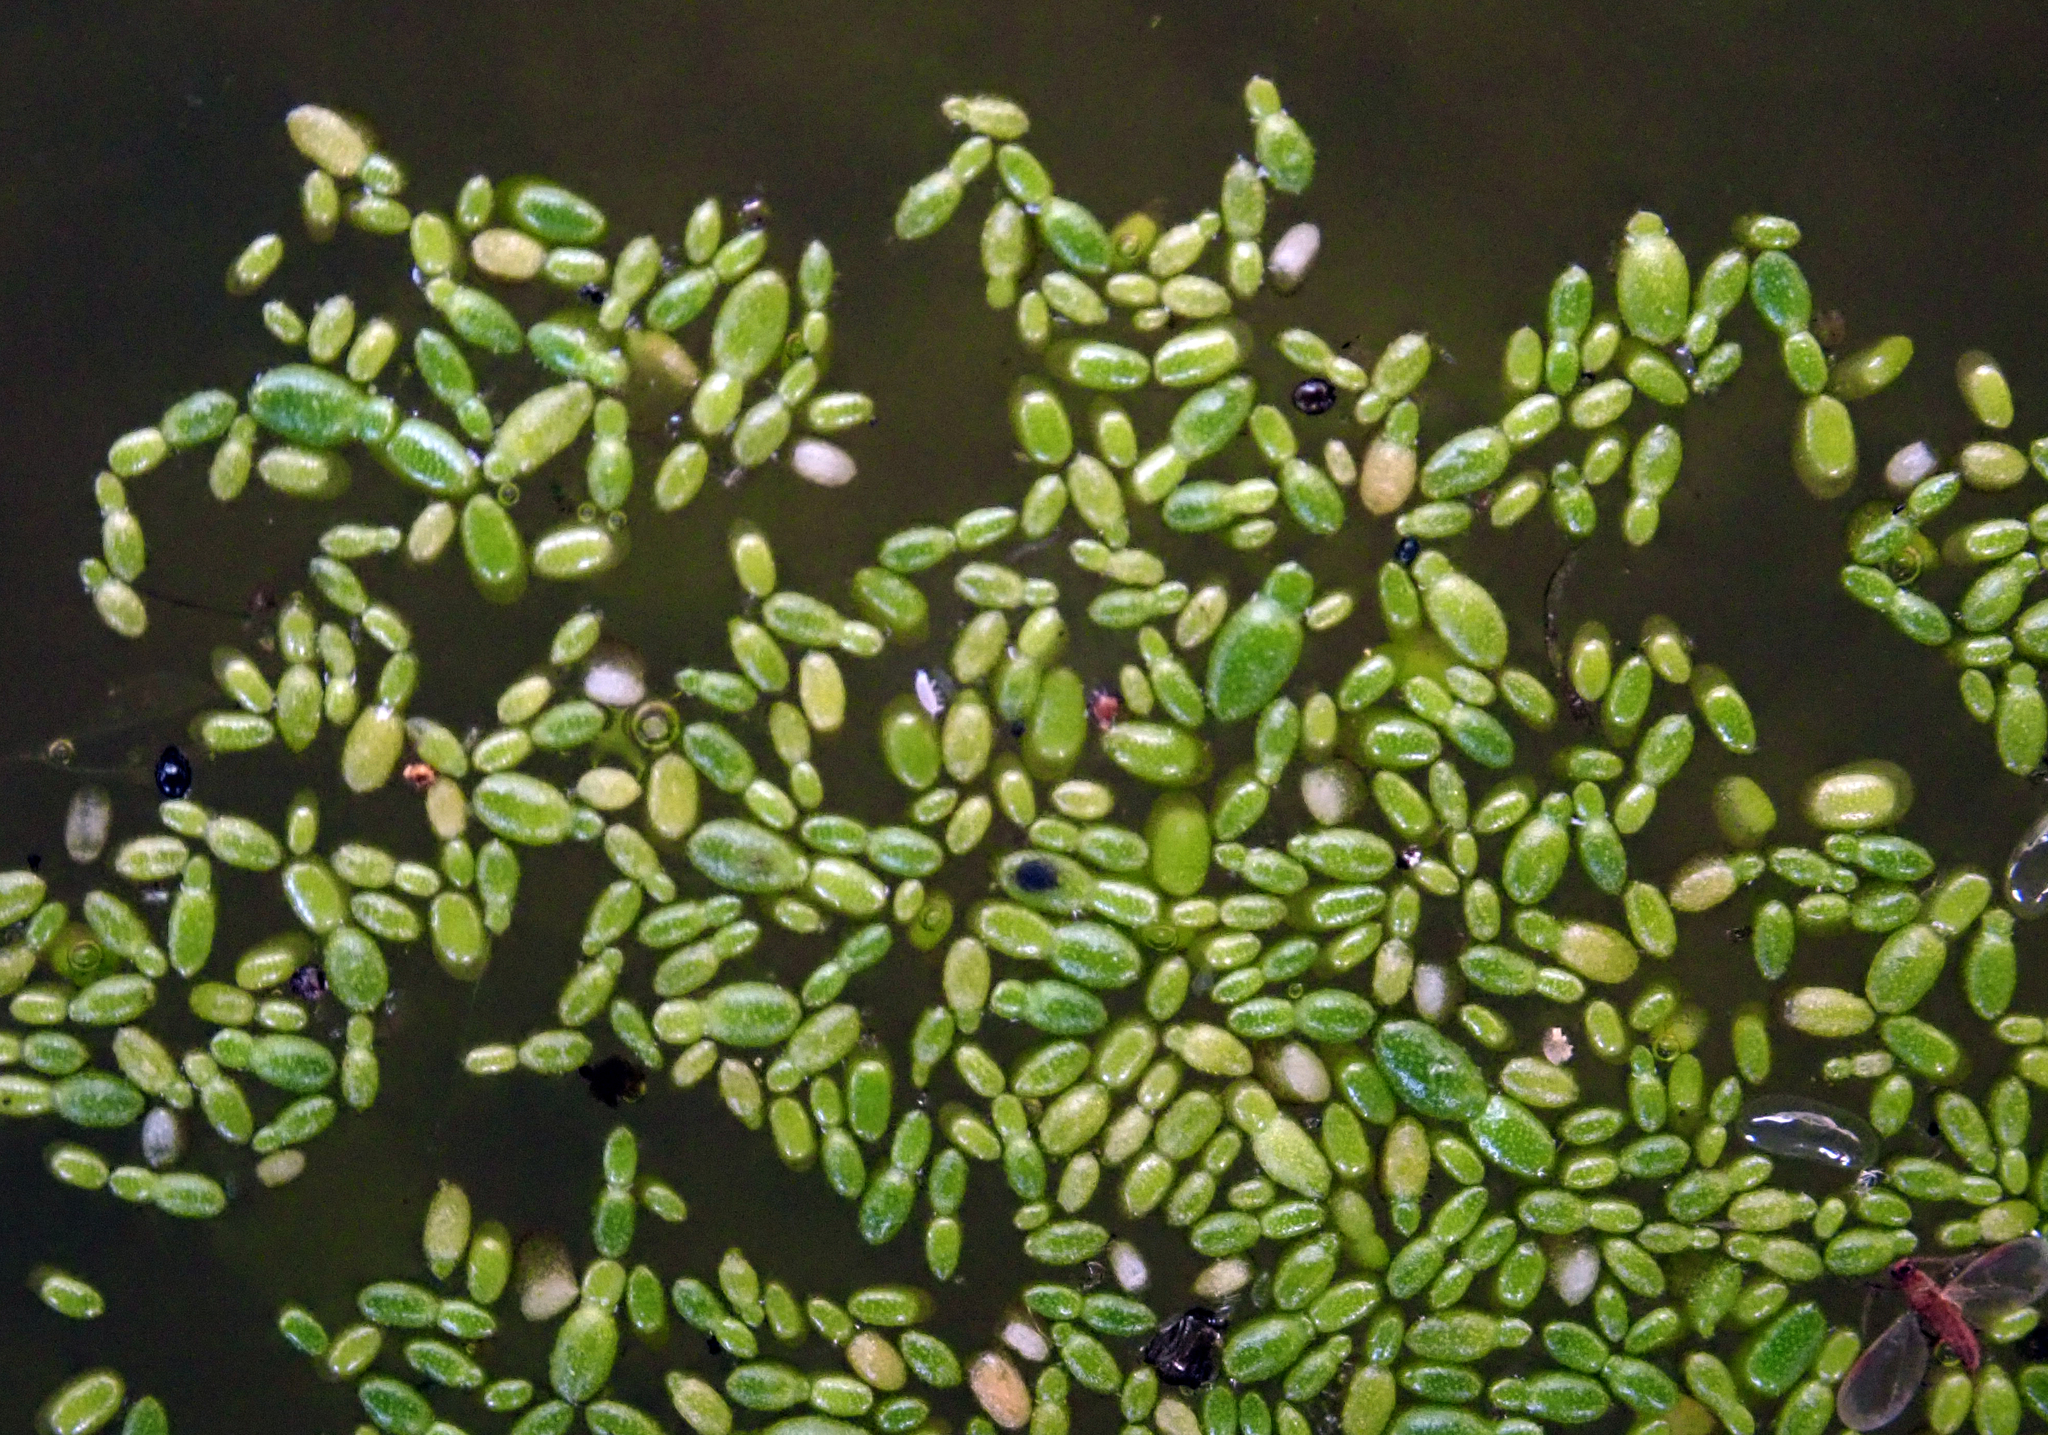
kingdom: Plantae
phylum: Tracheophyta
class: Liliopsida
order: Alismatales
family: Araceae
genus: Wolffia
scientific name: Wolffia australiana
